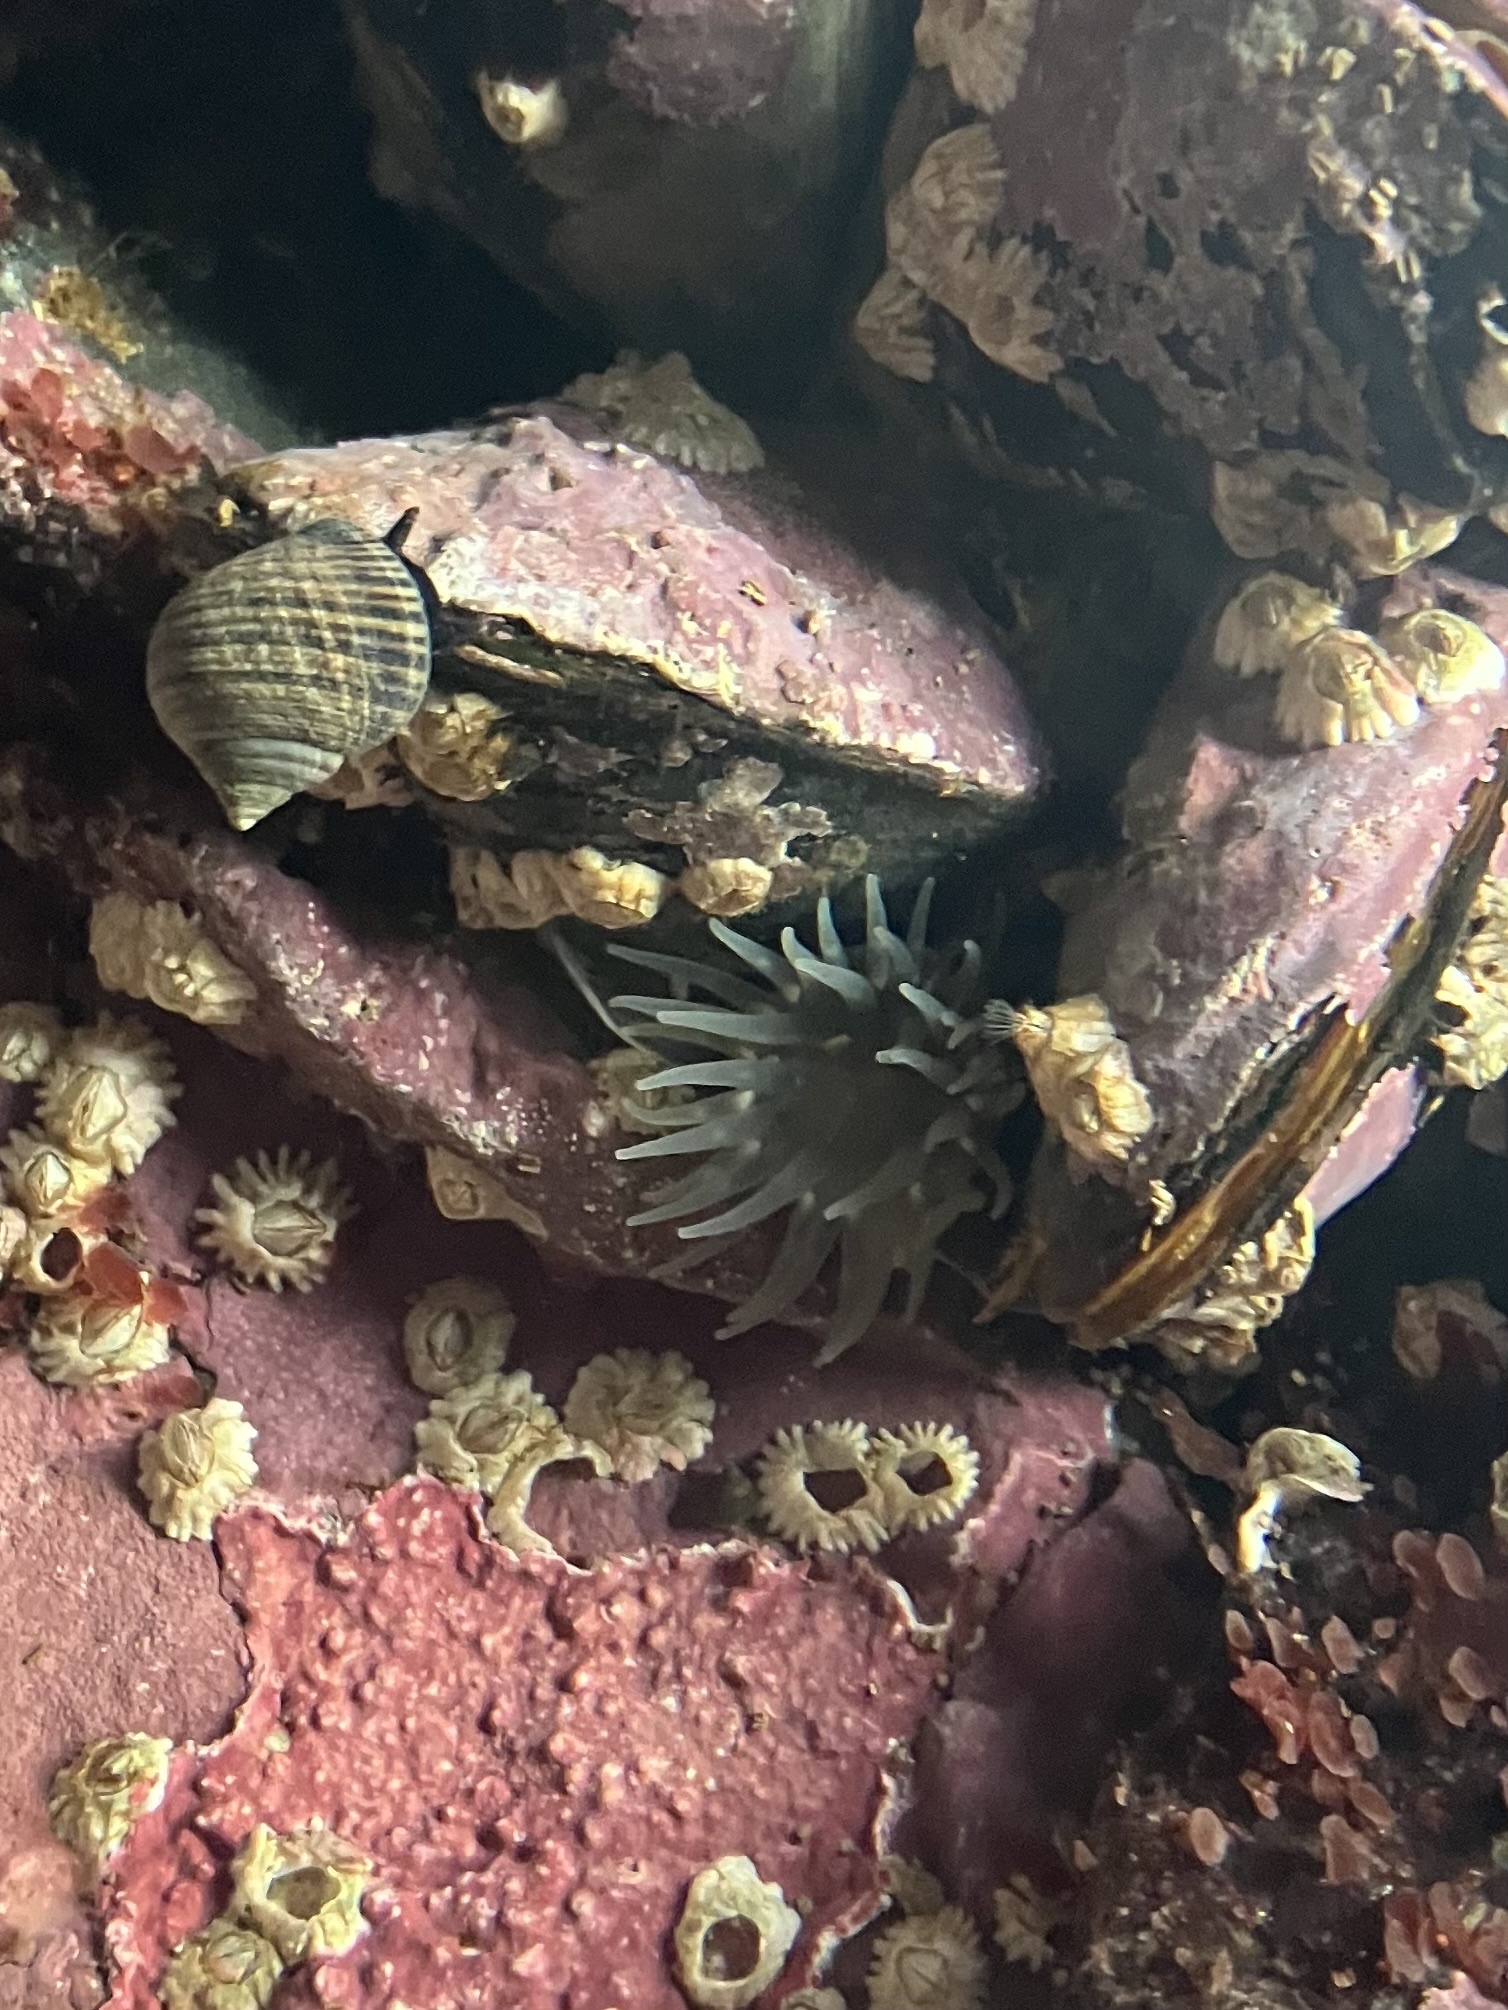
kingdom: Animalia
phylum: Cnidaria
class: Anthozoa
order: Actiniaria
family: Actiniidae
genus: Aulactinia
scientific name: Aulactinia stella
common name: Silver-spotted sea anemone
